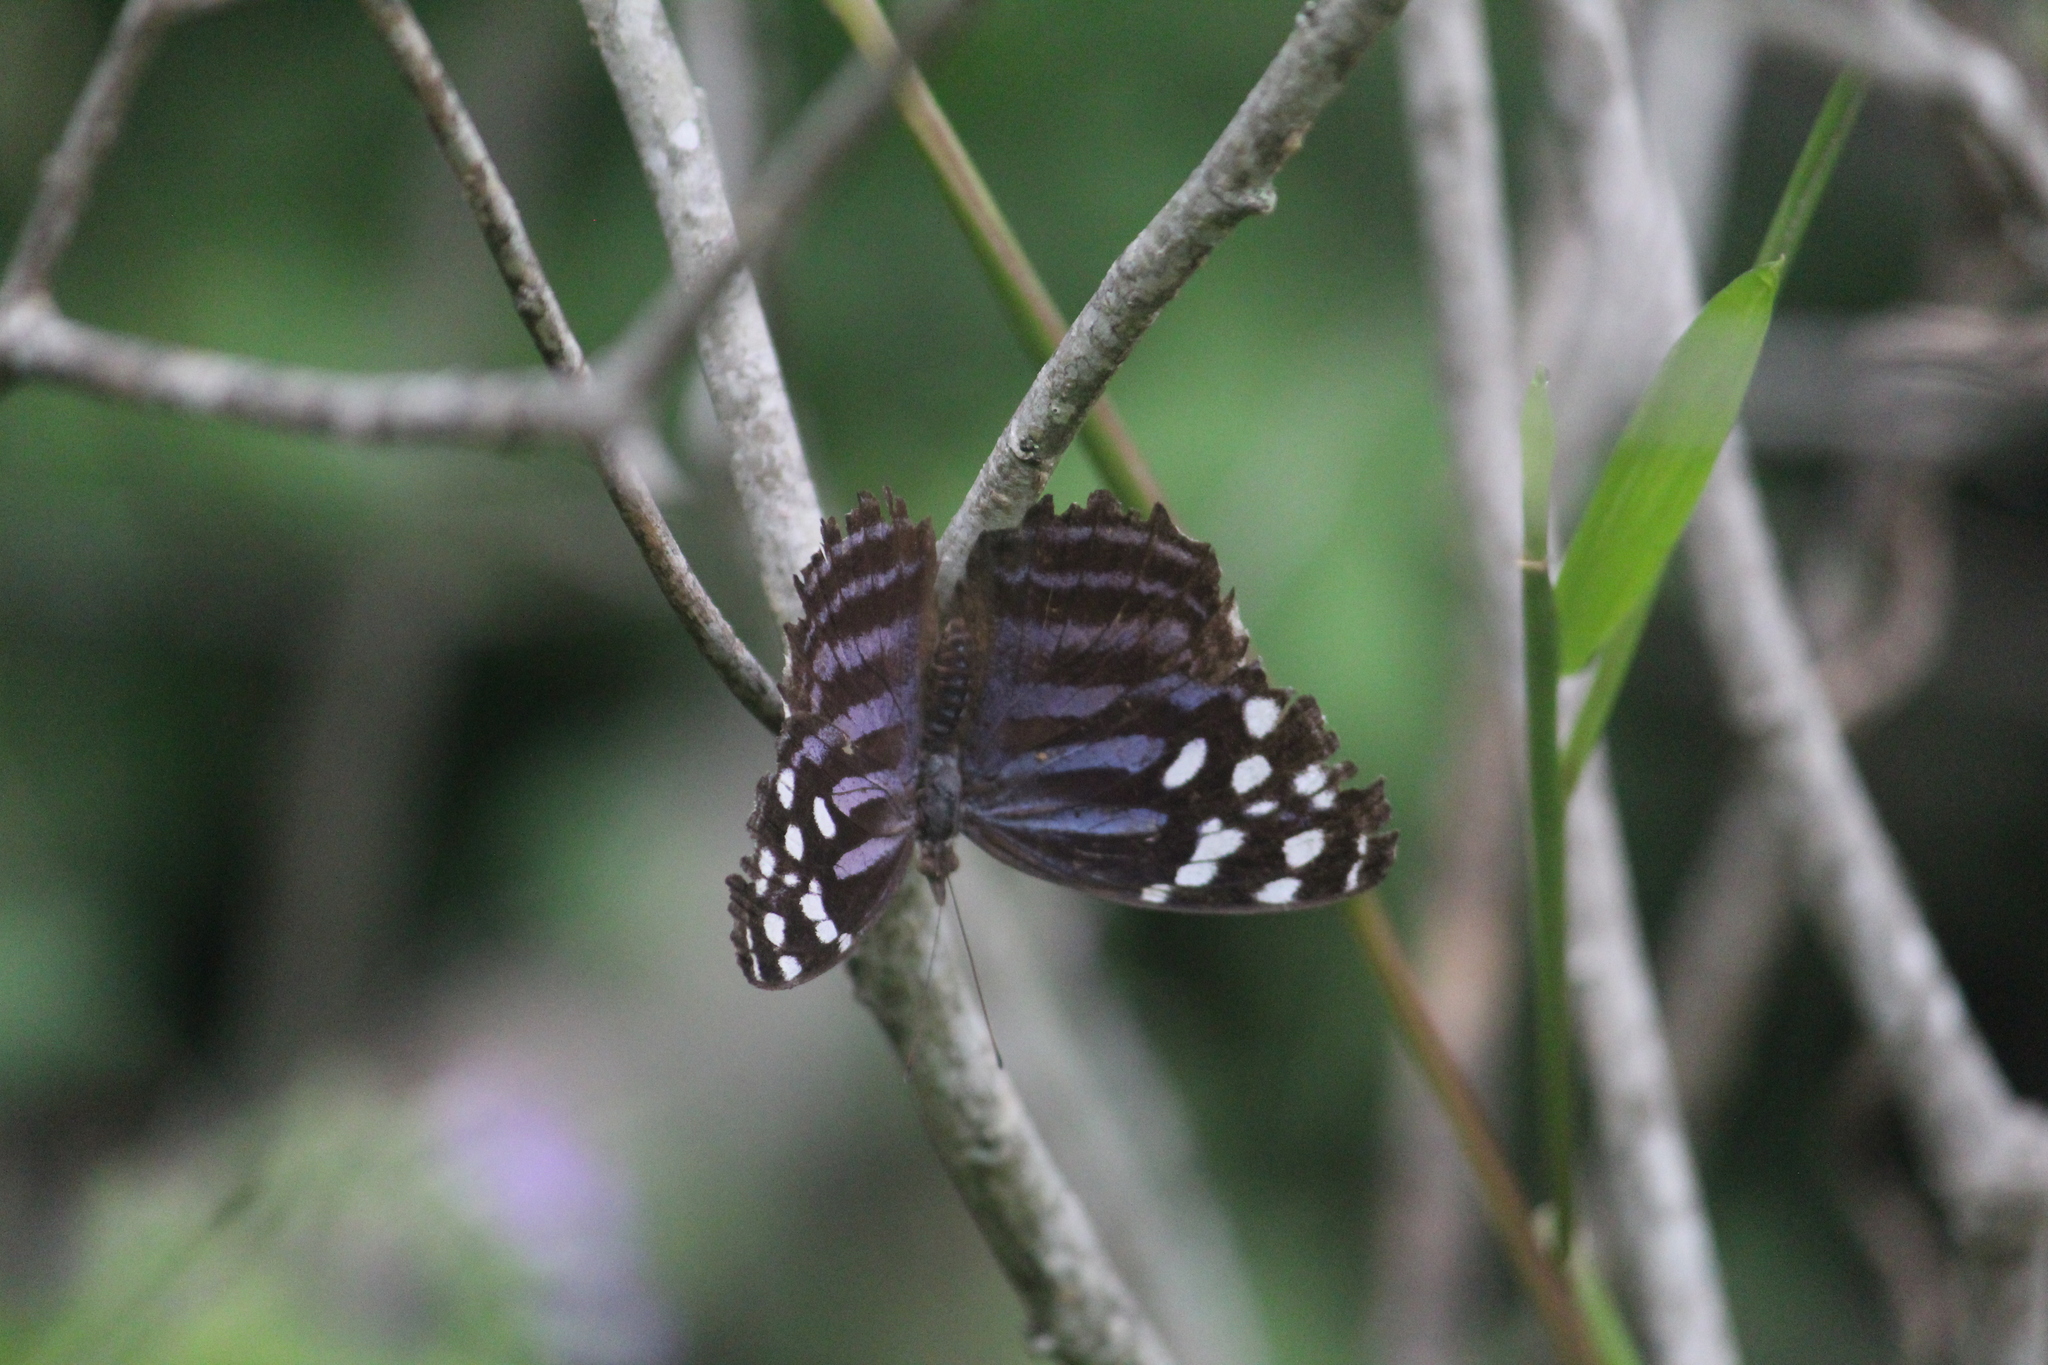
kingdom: Animalia
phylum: Arthropoda
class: Insecta
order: Lepidoptera
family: Nymphalidae
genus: Myscelia
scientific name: Myscelia ethusa
